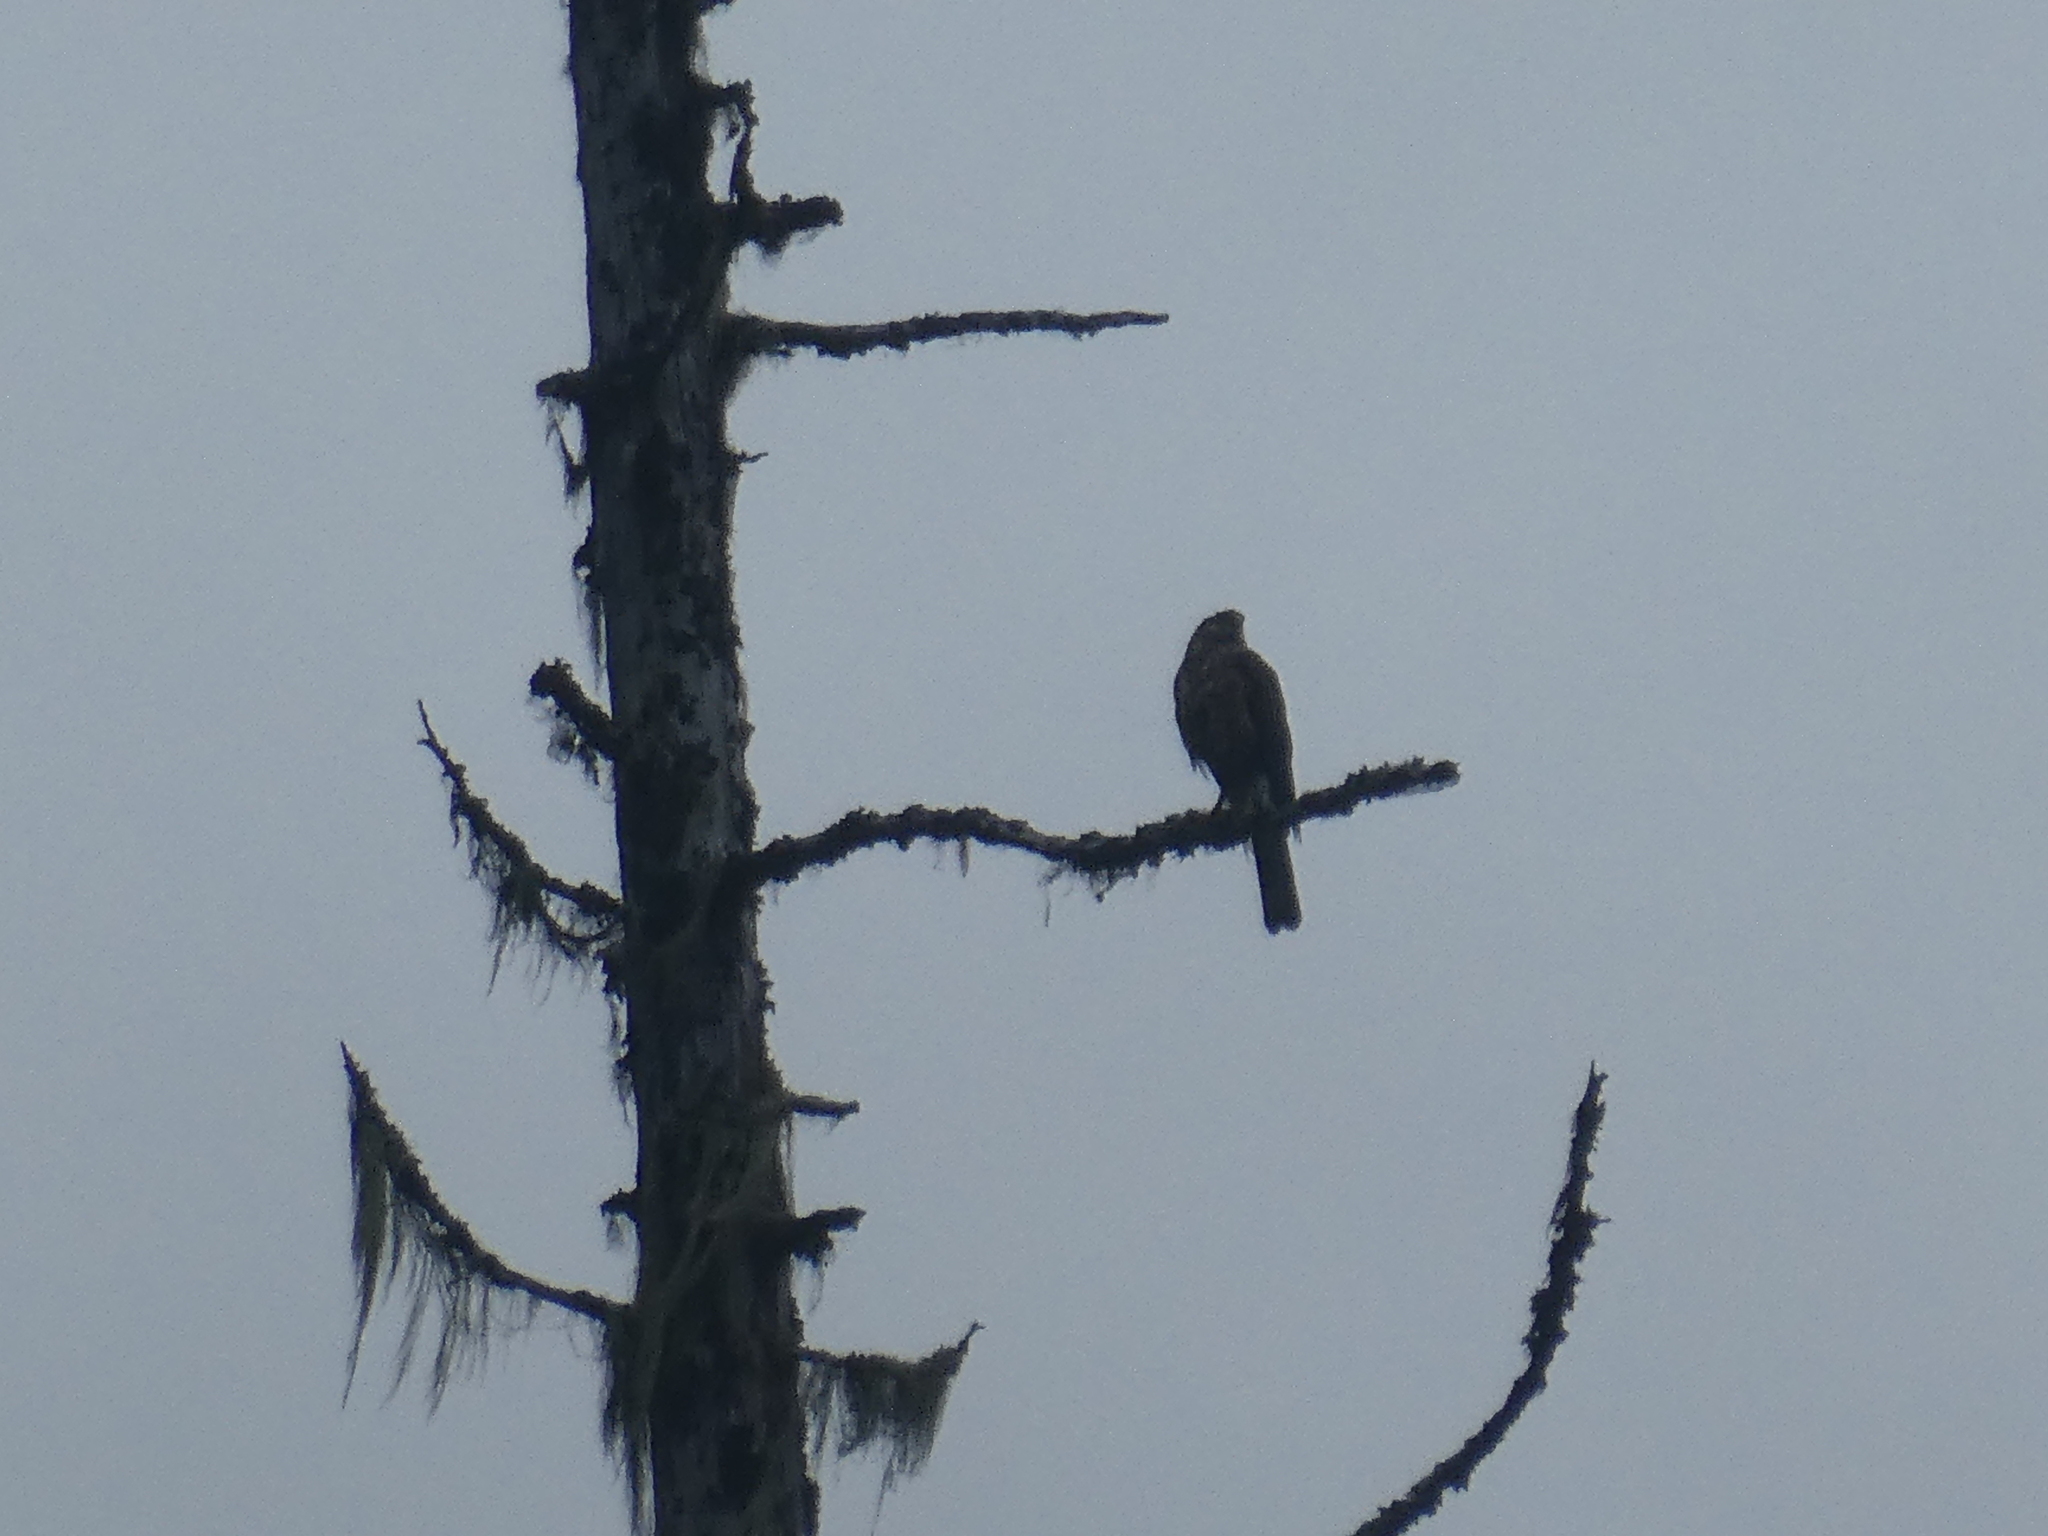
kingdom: Animalia
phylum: Chordata
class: Aves
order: Accipitriformes
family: Accipitridae
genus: Accipiter
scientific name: Accipiter striatus
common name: Sharp-shinned hawk
